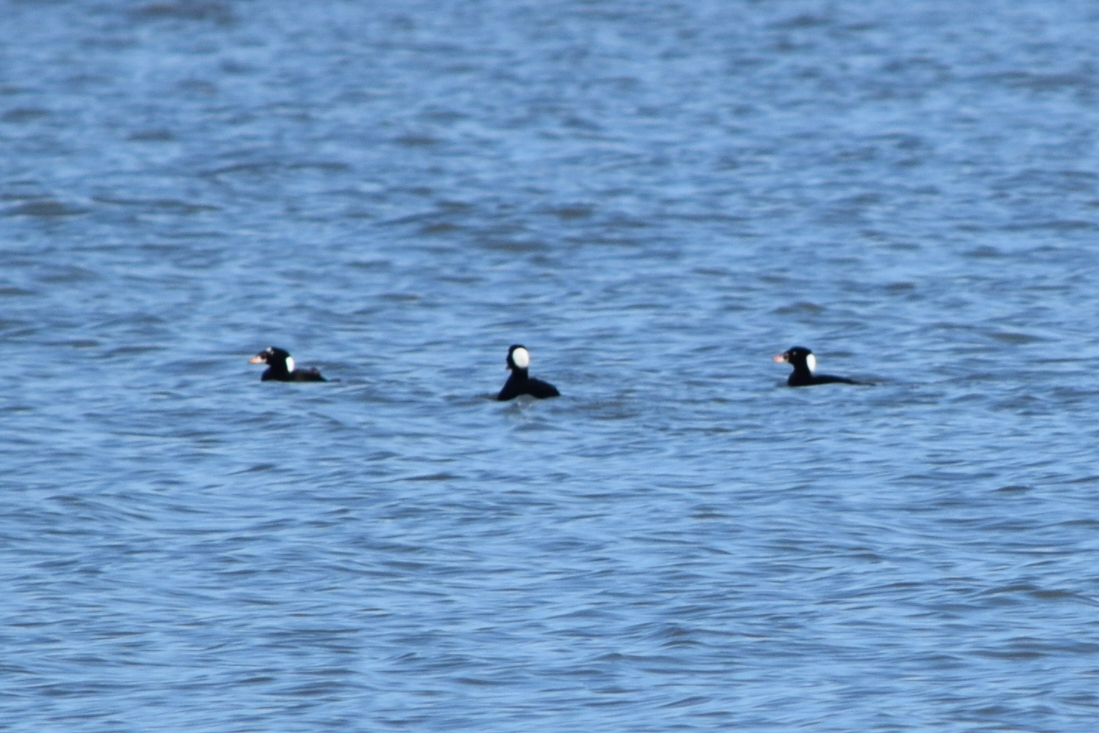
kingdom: Animalia
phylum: Chordata
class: Aves
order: Anseriformes
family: Anatidae
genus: Melanitta
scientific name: Melanitta perspicillata
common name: Surf scoter
